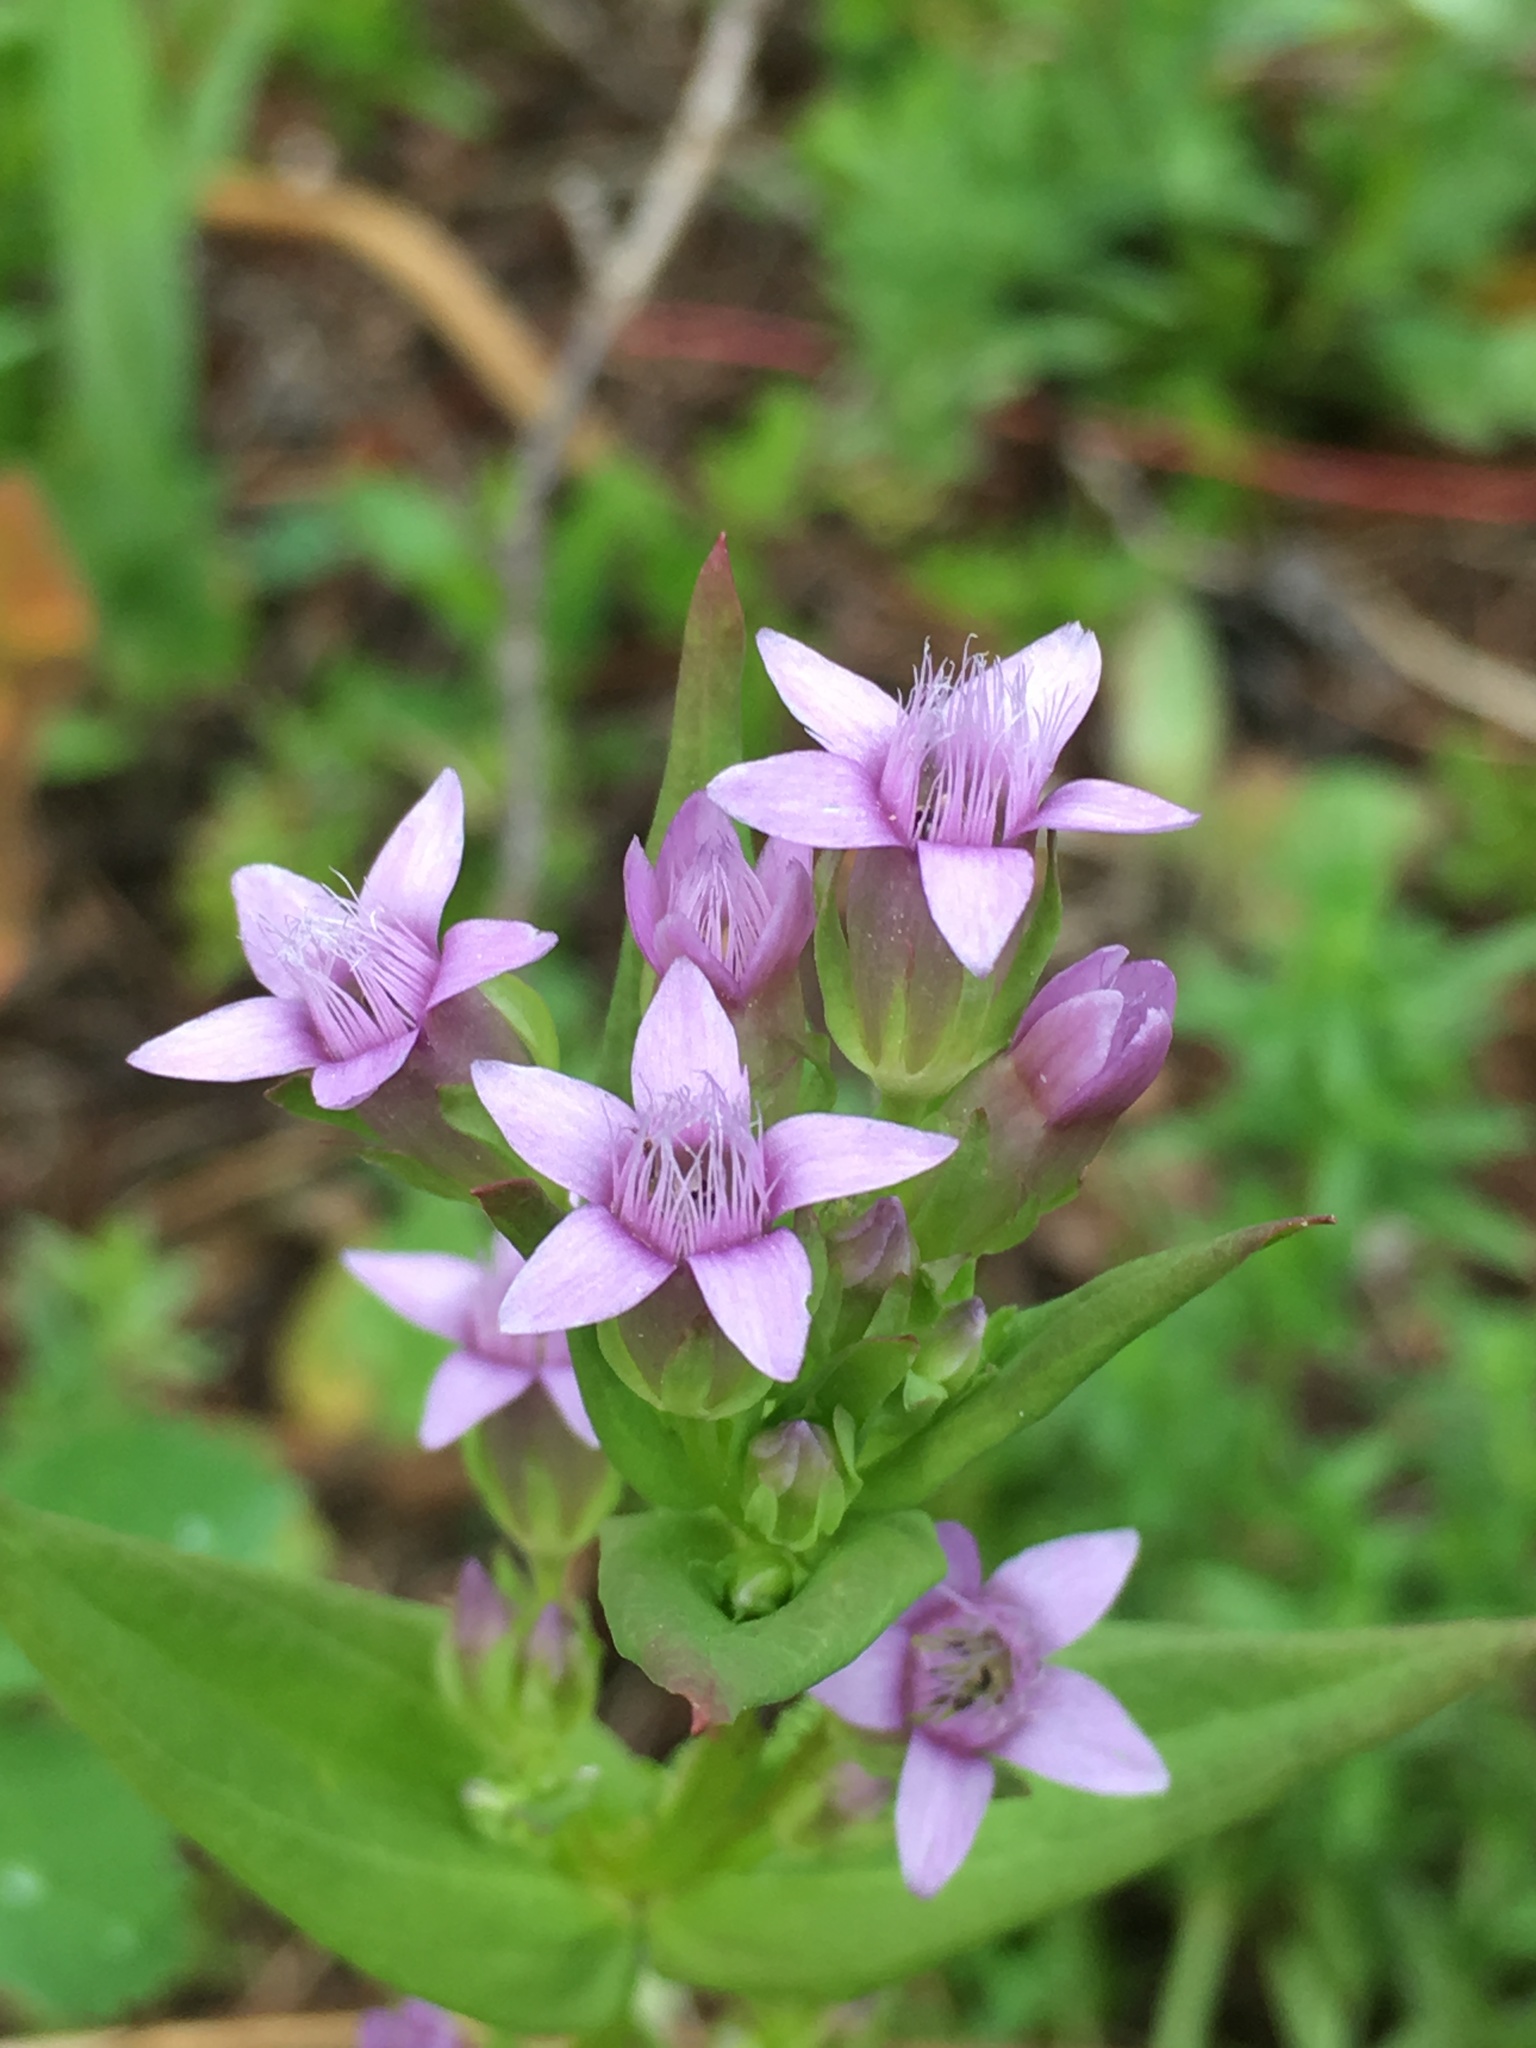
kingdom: Plantae
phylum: Tracheophyta
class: Magnoliopsida
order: Gentianales
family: Gentianaceae
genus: Gentianella
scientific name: Gentianella amarella
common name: Autumn gentian
